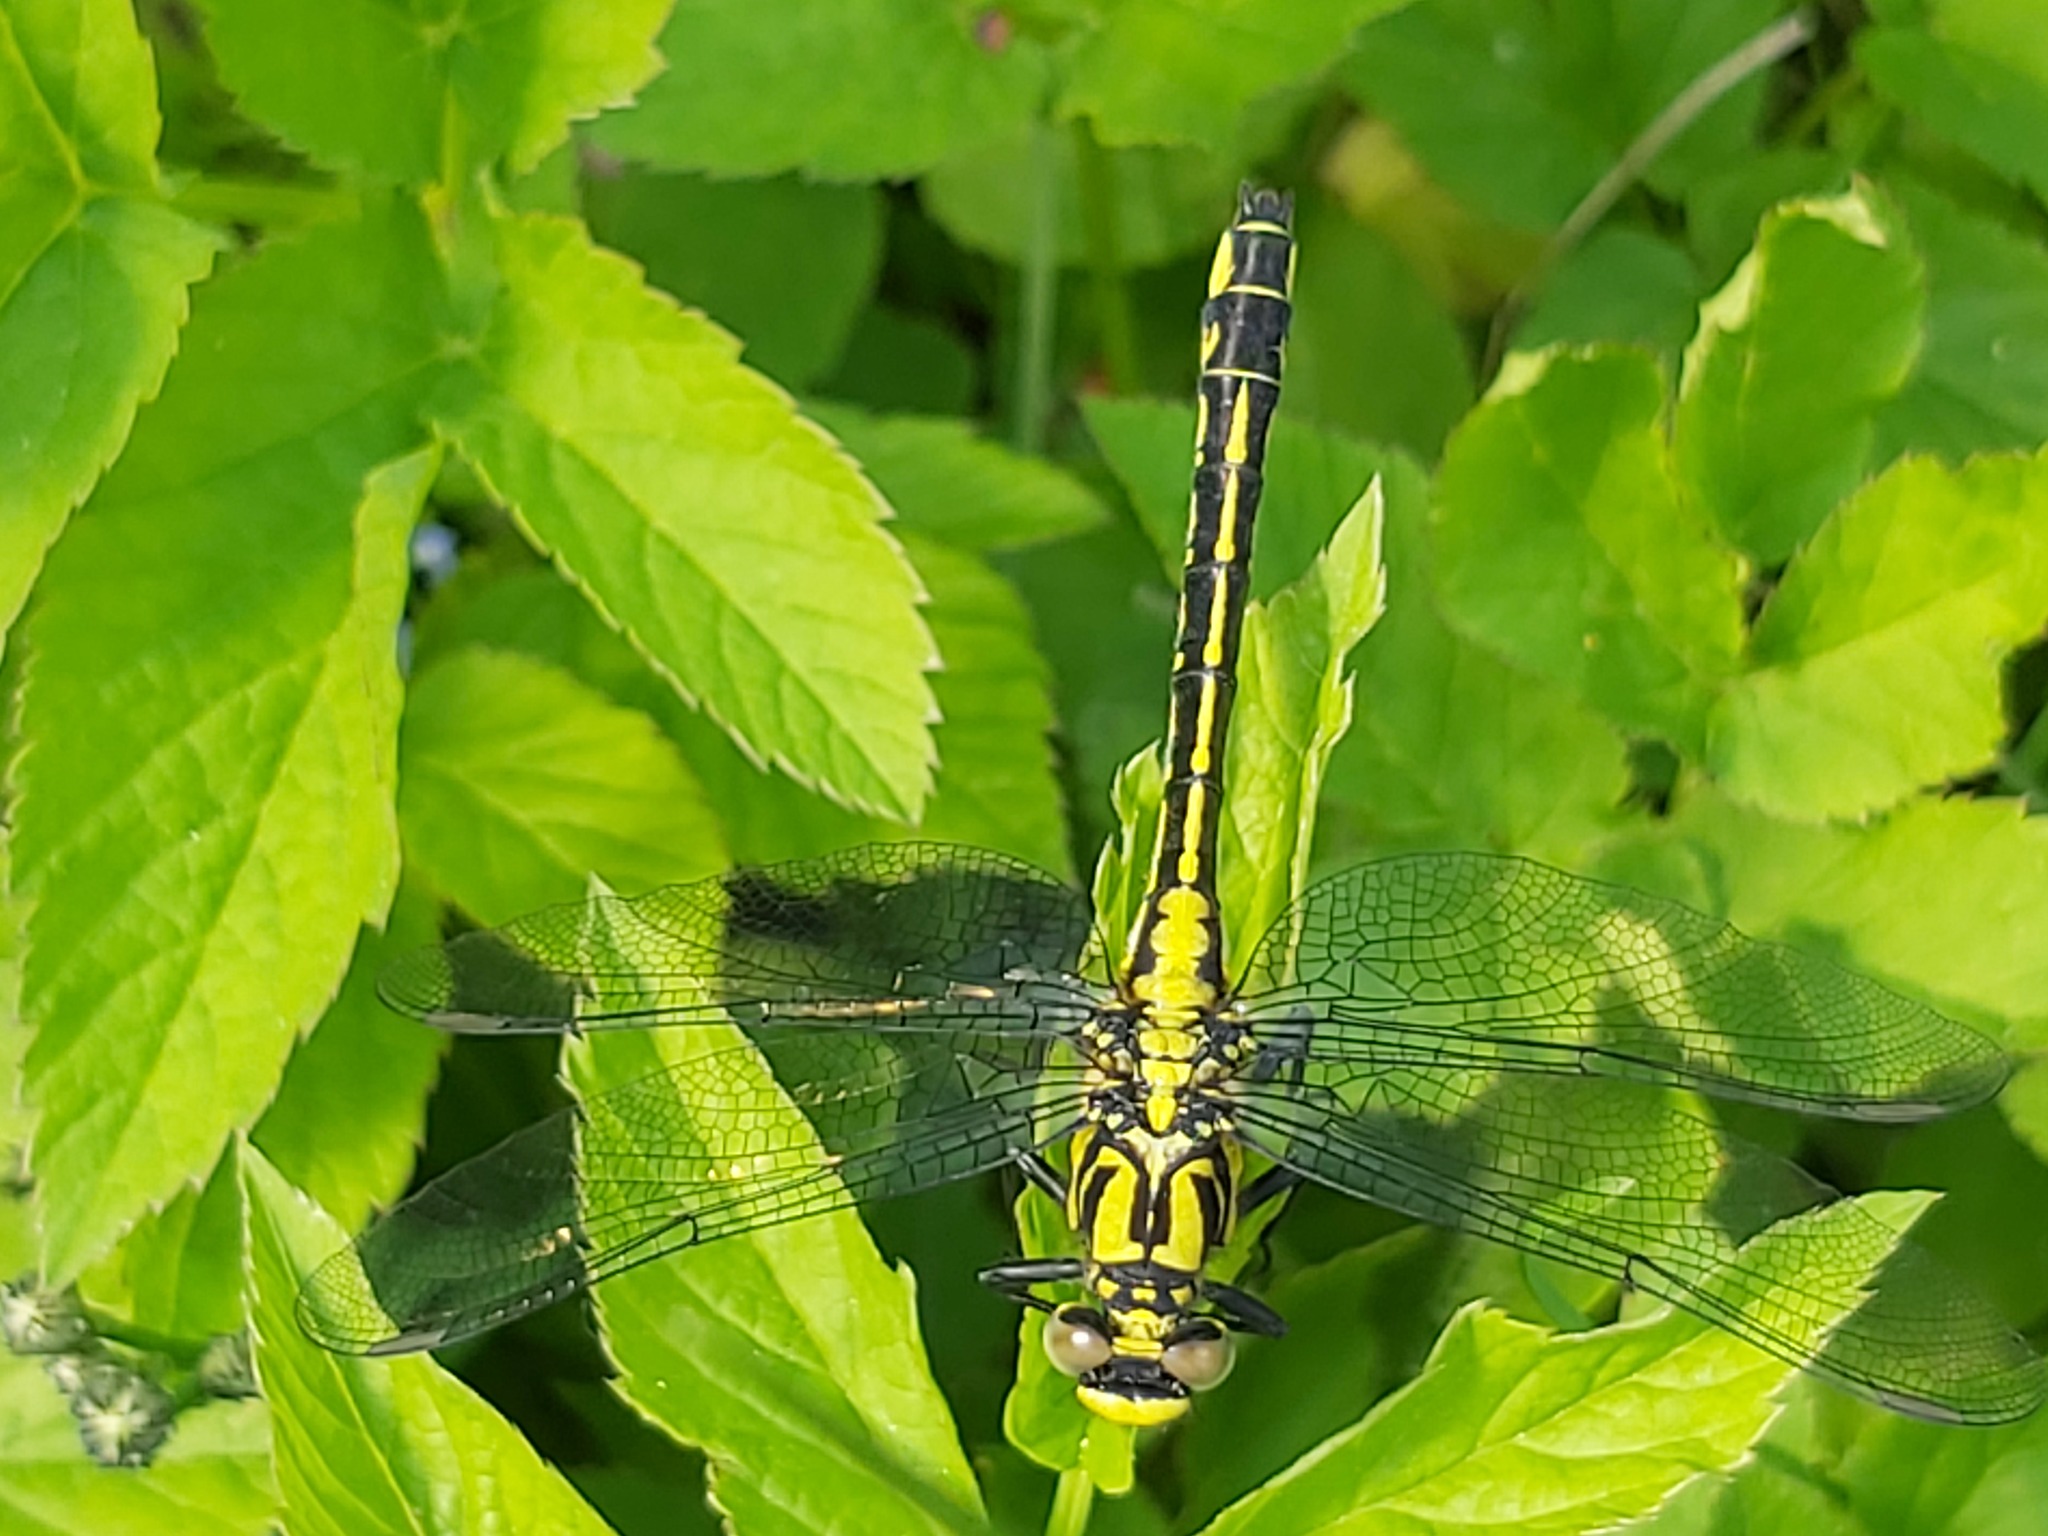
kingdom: Animalia
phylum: Arthropoda
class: Insecta
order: Odonata
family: Gomphidae
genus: Gomphus
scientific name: Gomphus vulgatissimus
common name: Club-tailed dragonfly
